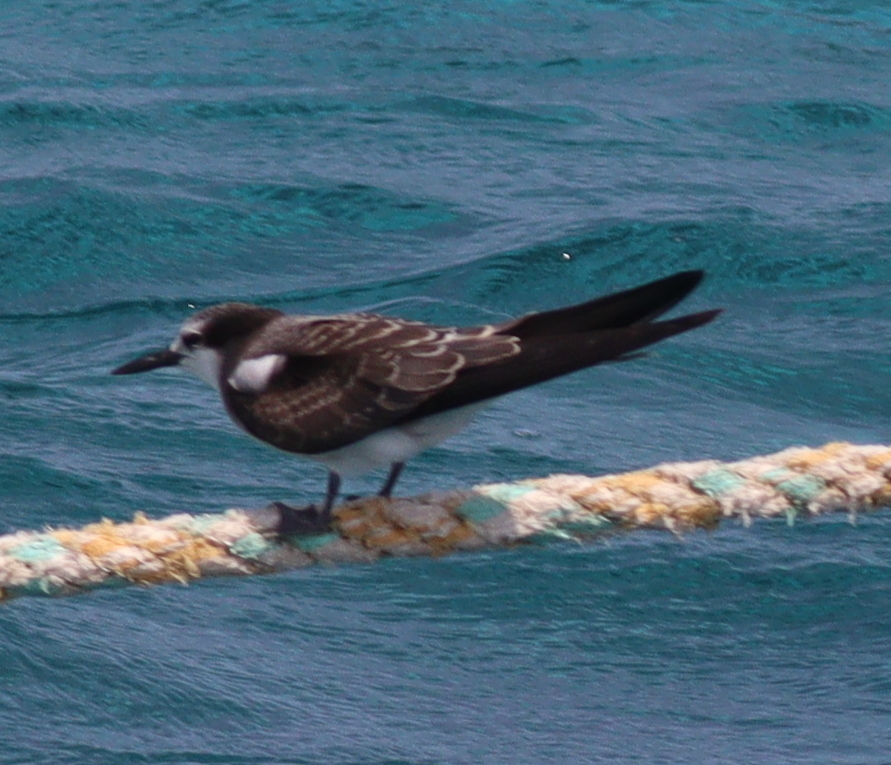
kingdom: Animalia
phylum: Chordata
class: Aves
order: Charadriiformes
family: Laridae
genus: Onychoprion
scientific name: Onychoprion anaethetus
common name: Bridled tern
